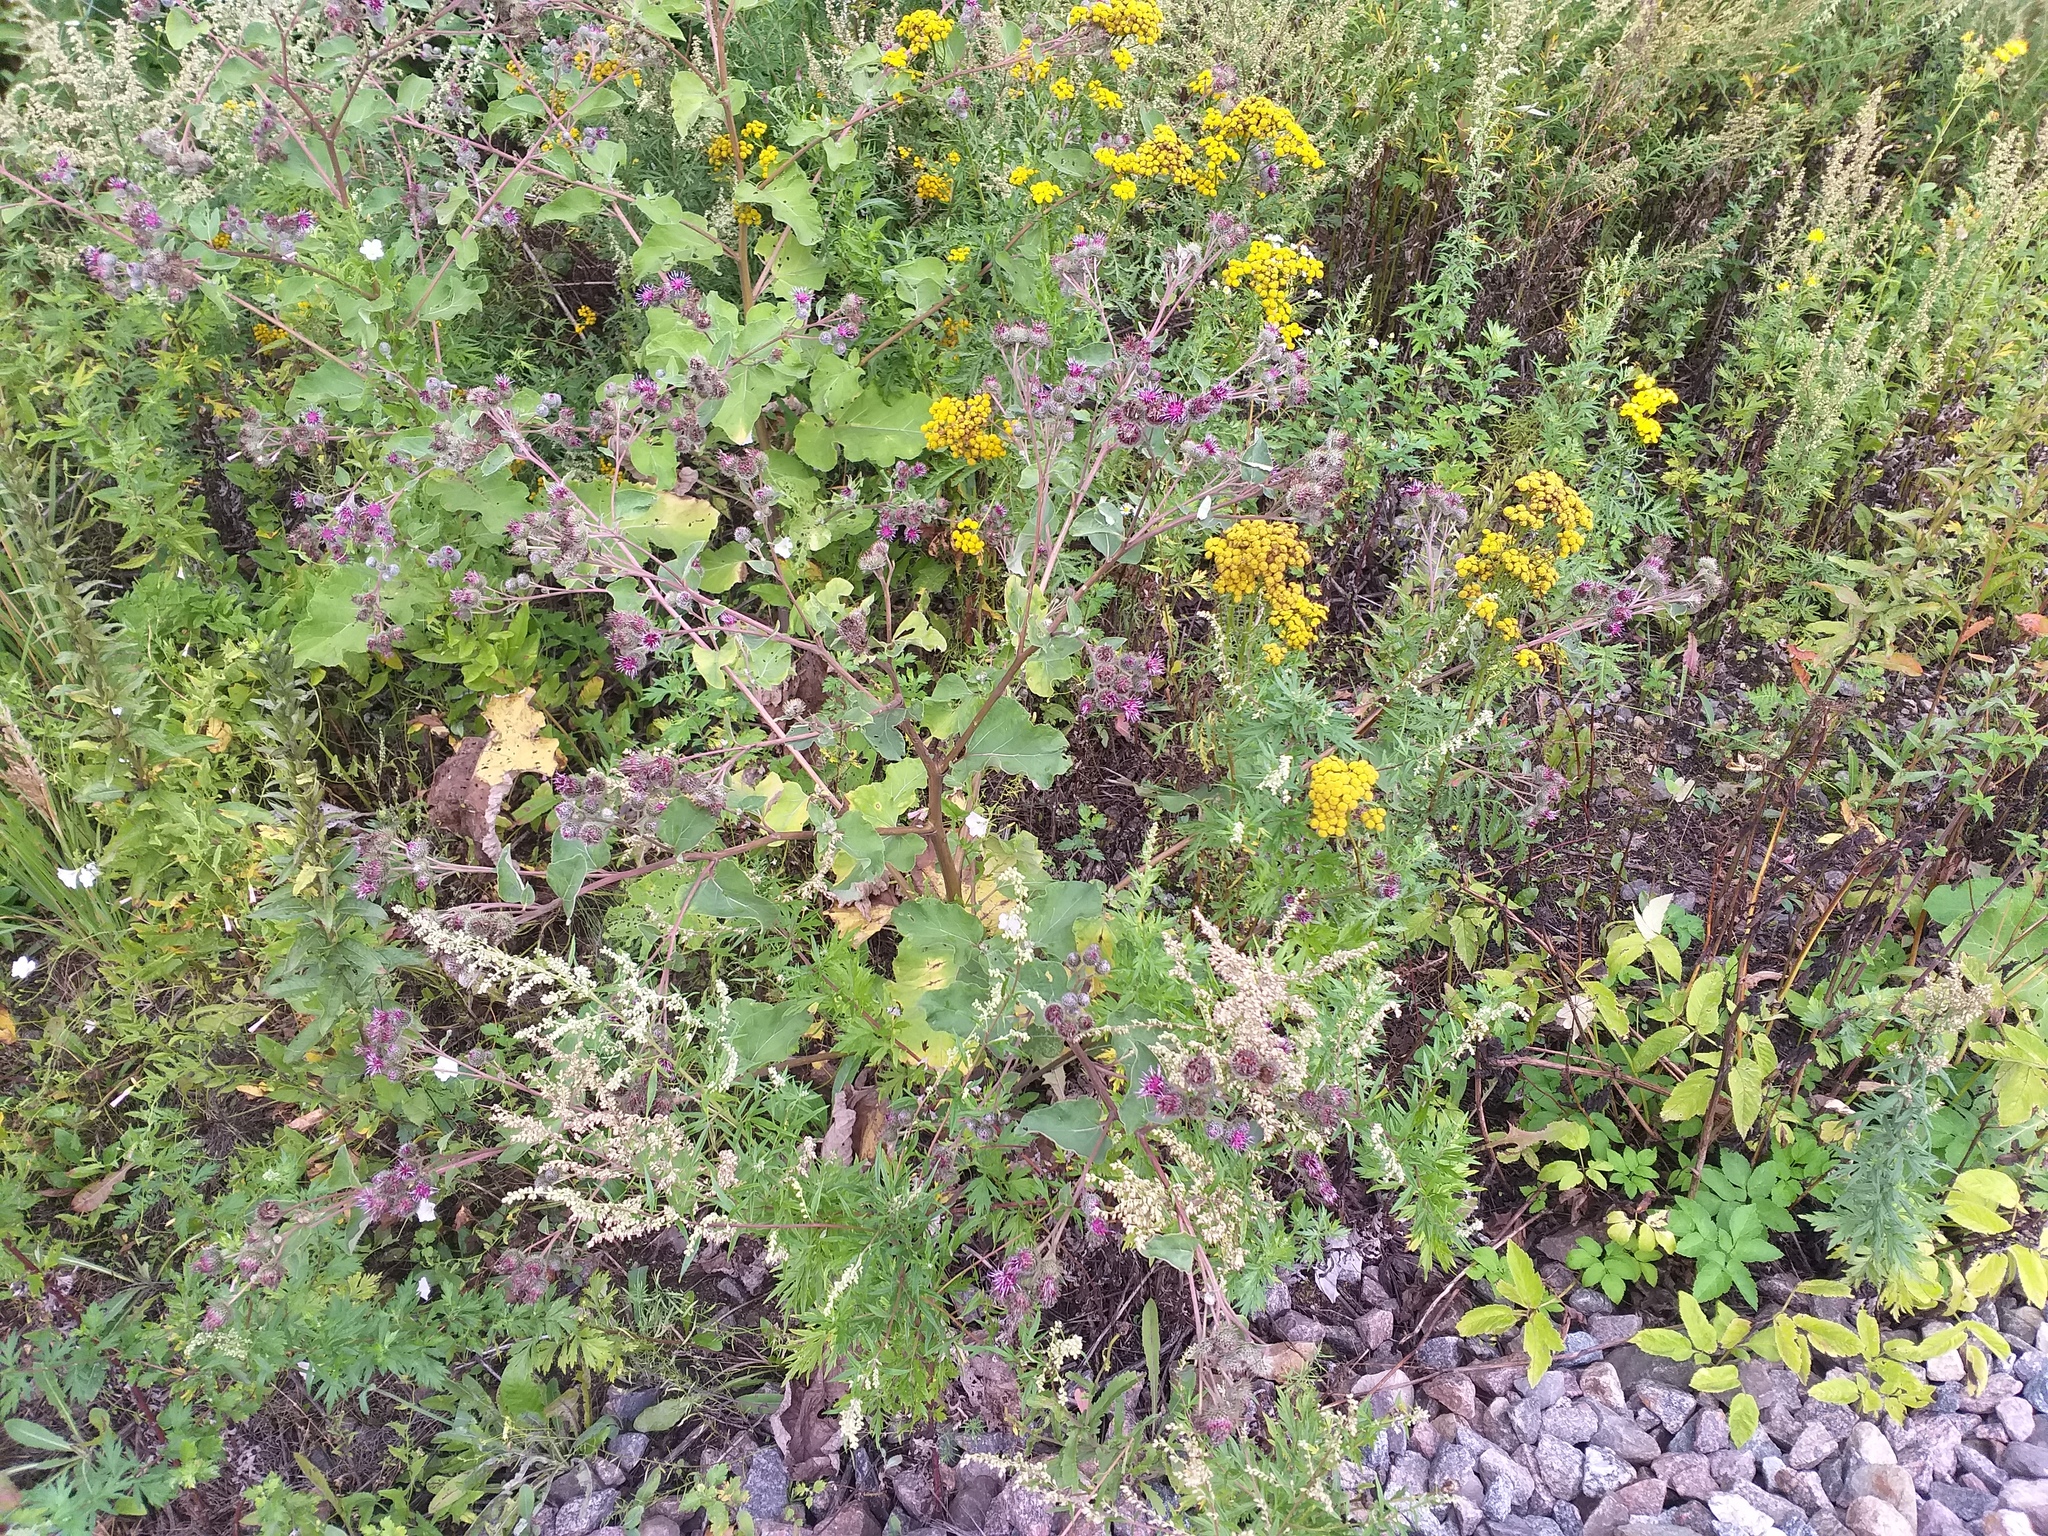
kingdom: Plantae
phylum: Tracheophyta
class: Magnoliopsida
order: Asterales
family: Asteraceae
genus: Arctium
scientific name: Arctium tomentosum
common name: Woolly burdock
